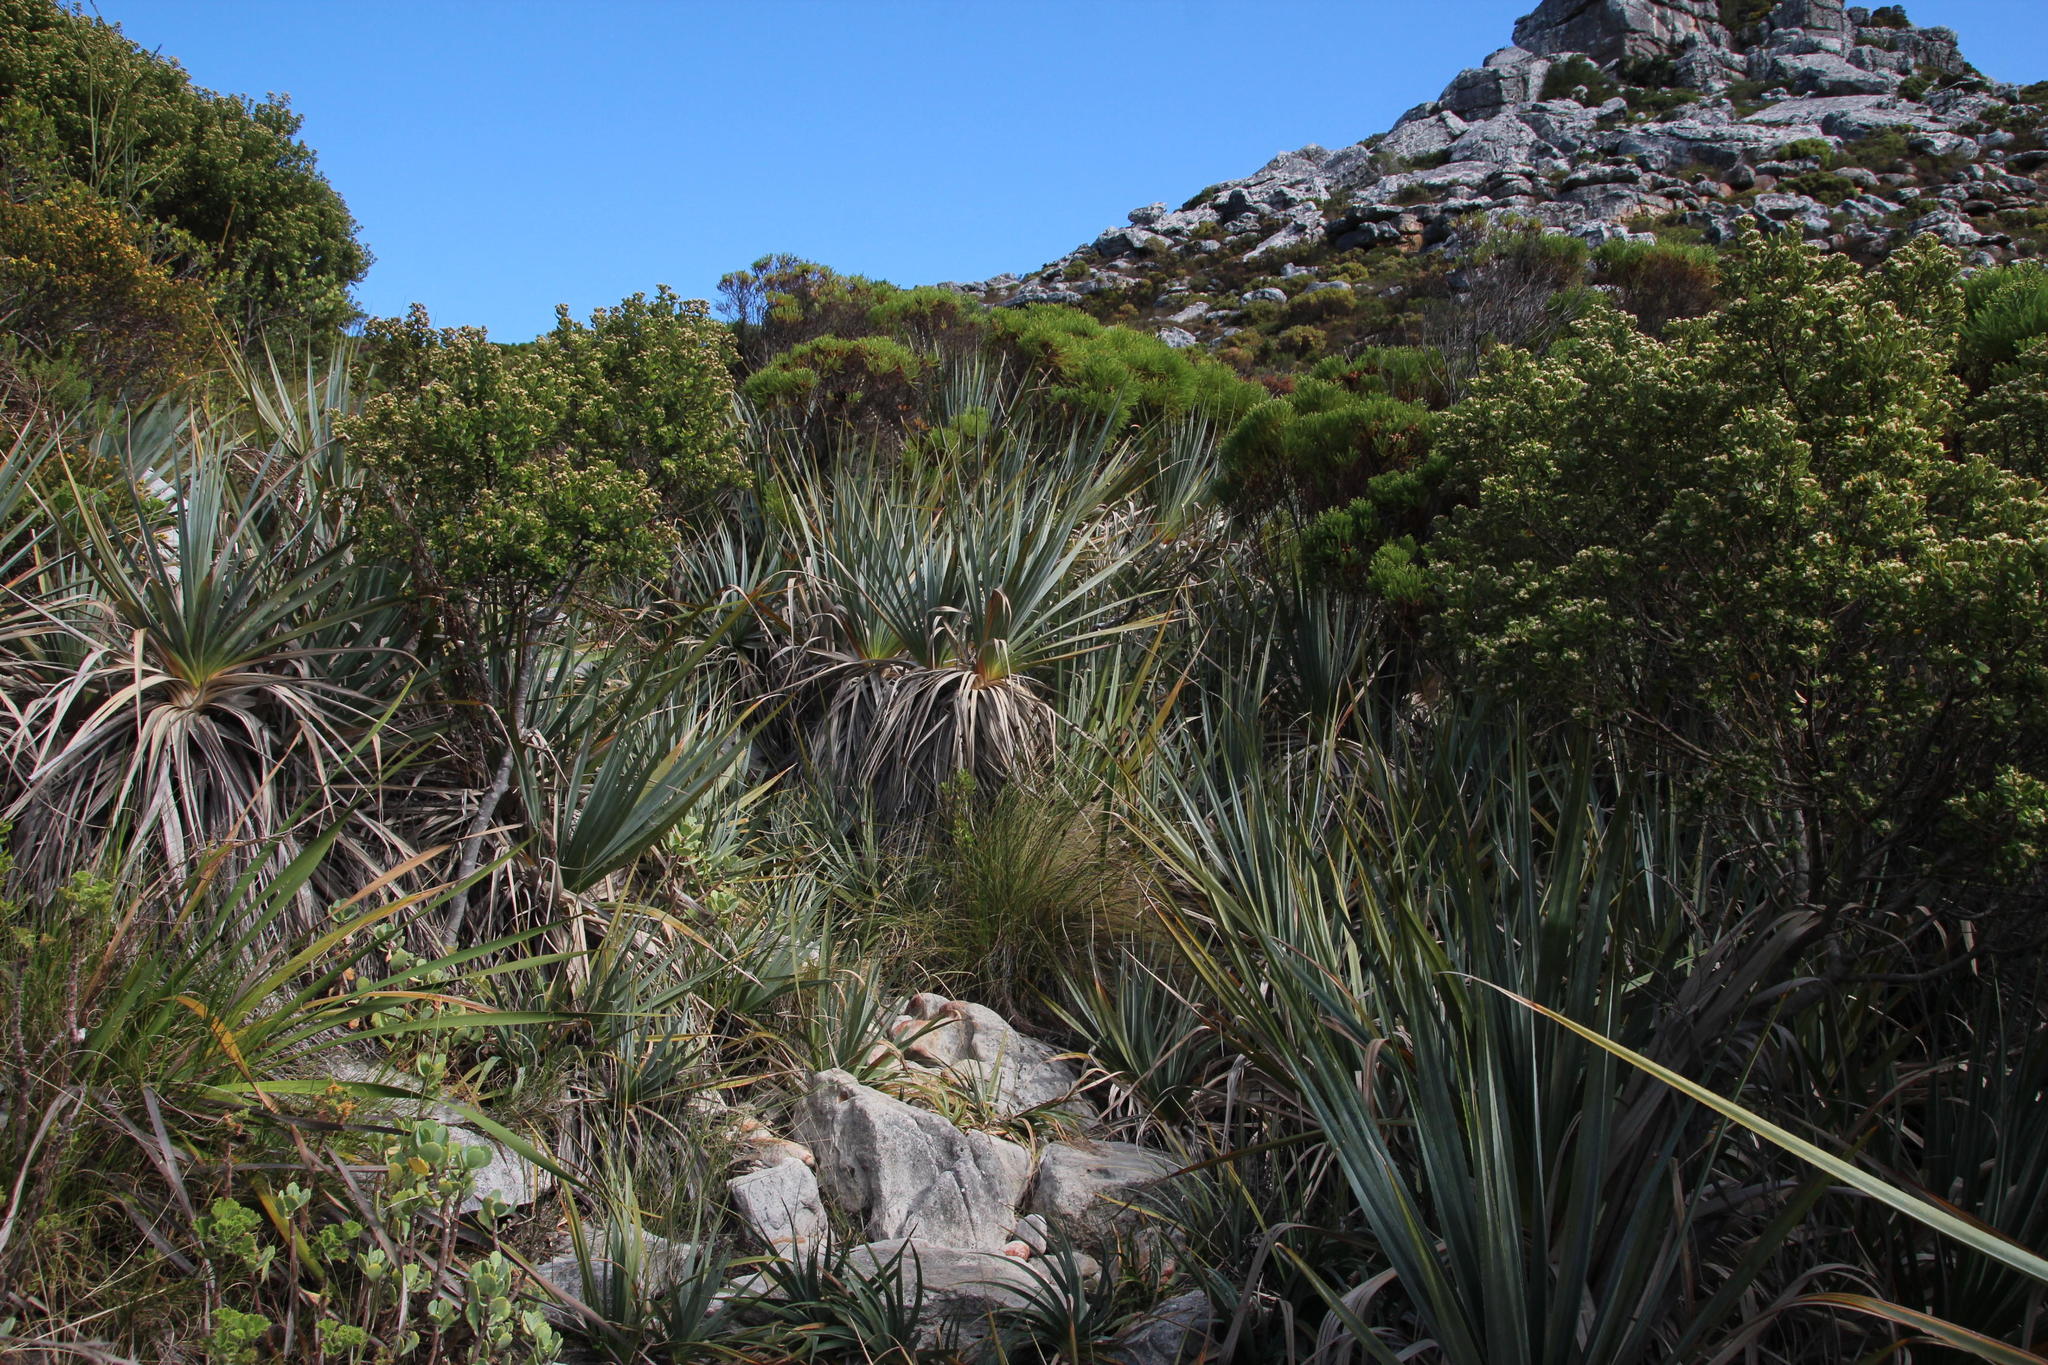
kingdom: Plantae
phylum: Tracheophyta
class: Liliopsida
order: Poales
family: Thurniaceae
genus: Prionium
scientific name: Prionium serratum
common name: Palmiet
